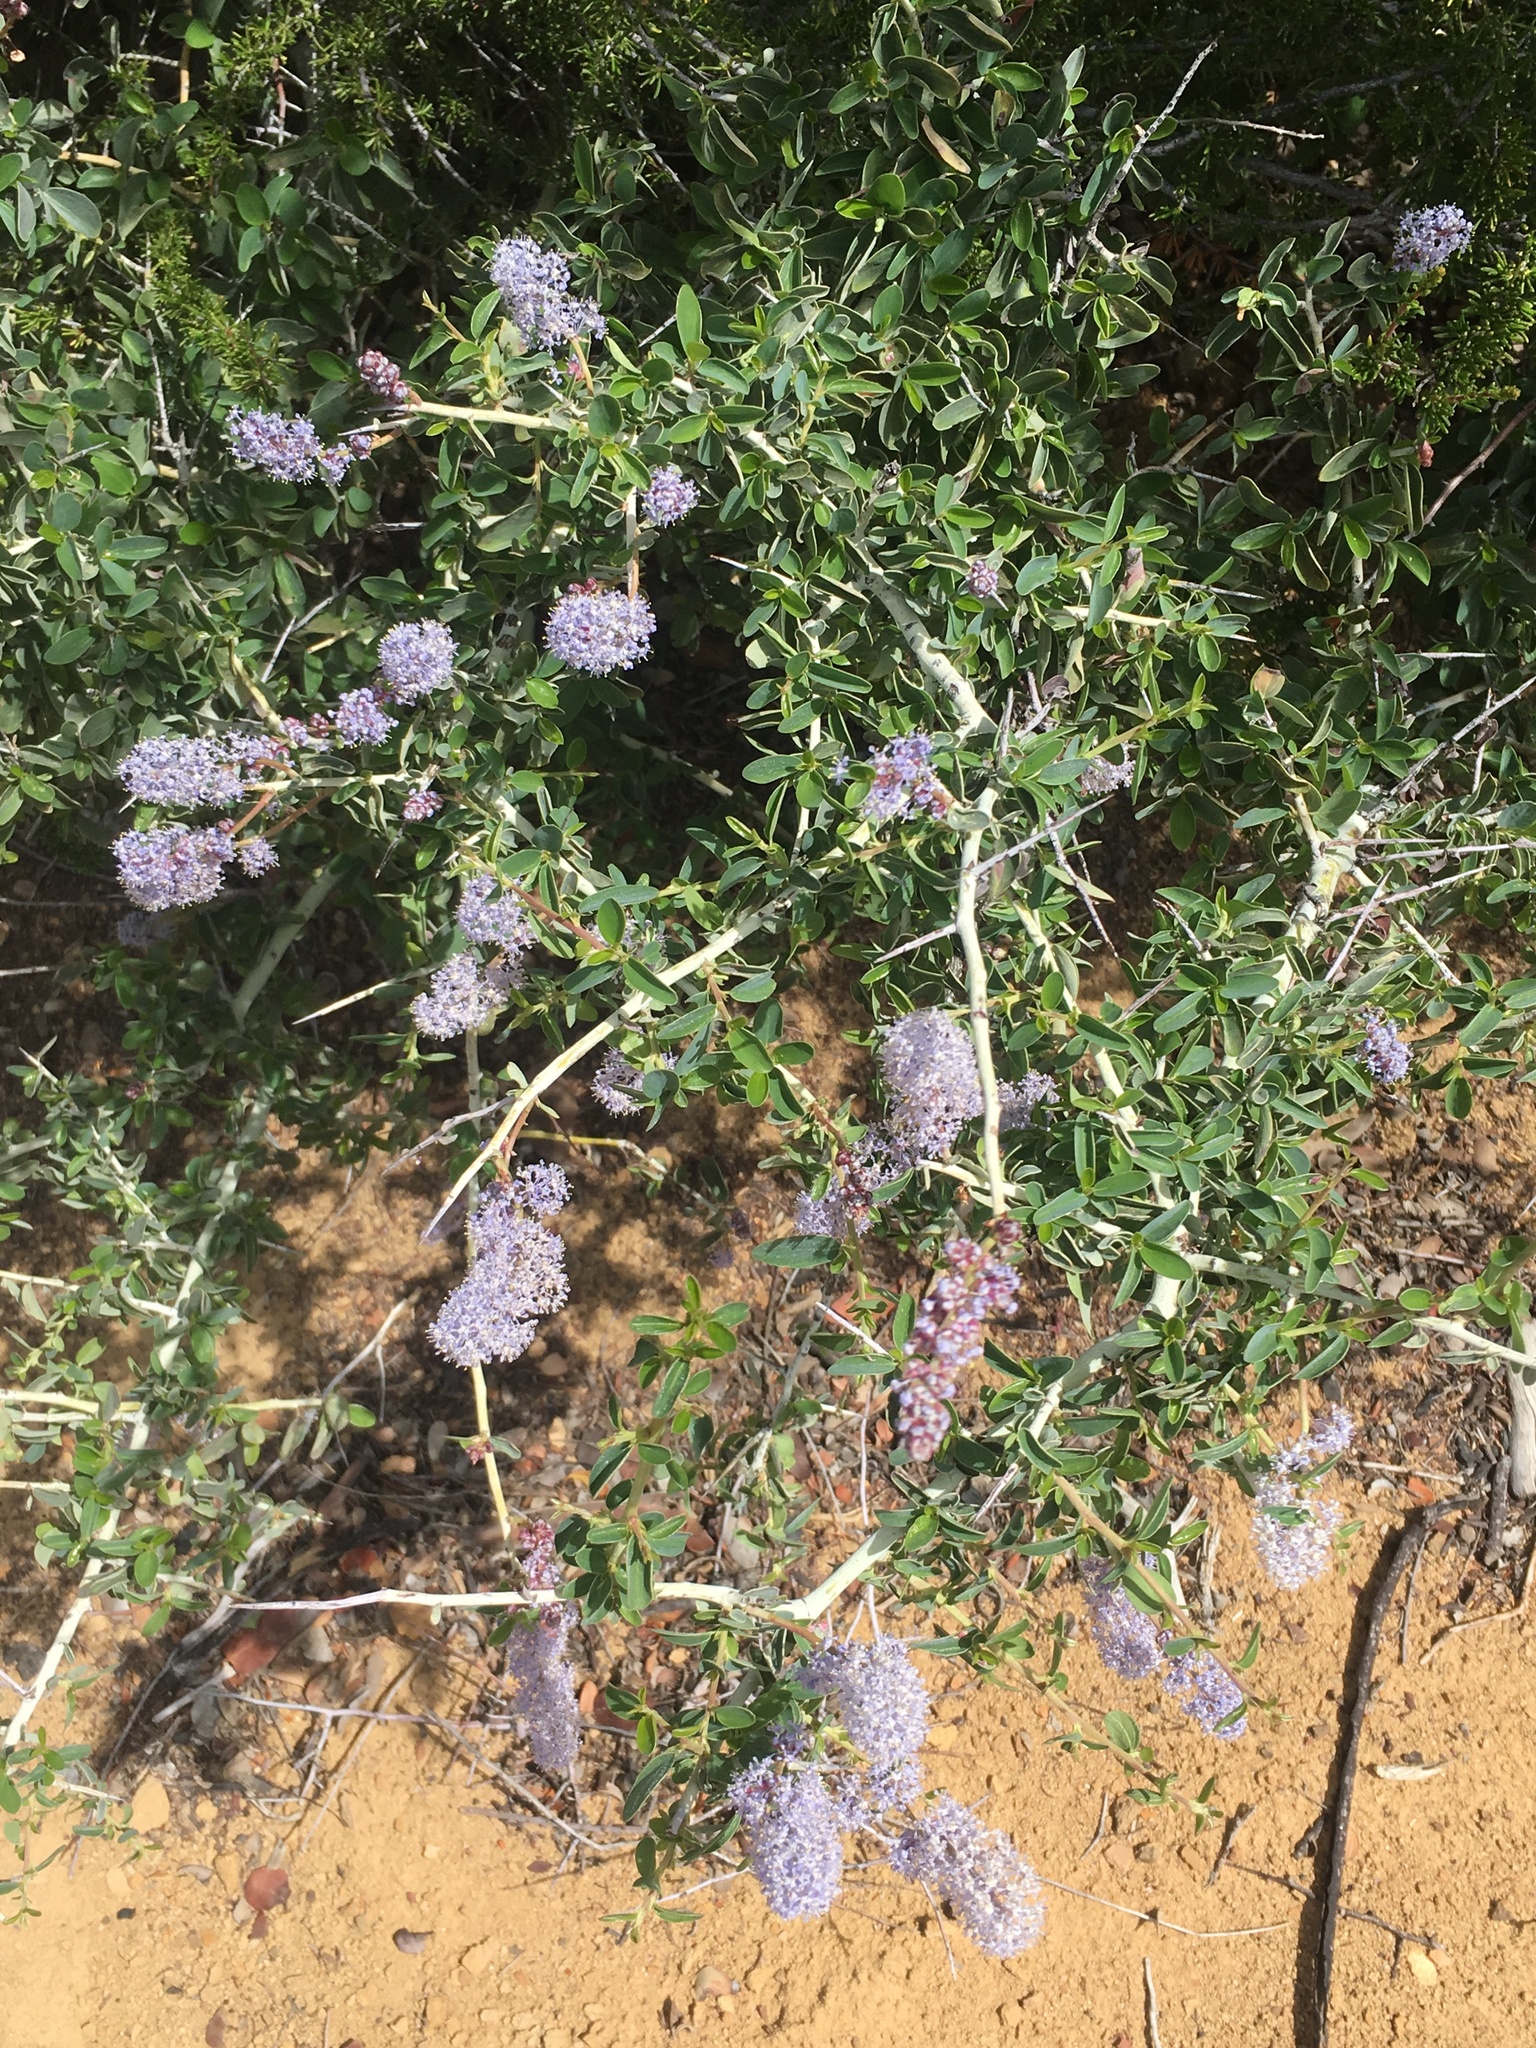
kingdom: Plantae
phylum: Tracheophyta
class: Magnoliopsida
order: Rosales
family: Rhamnaceae
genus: Ceanothus
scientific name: Ceanothus leucodermis
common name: Chaparral whitethorn
